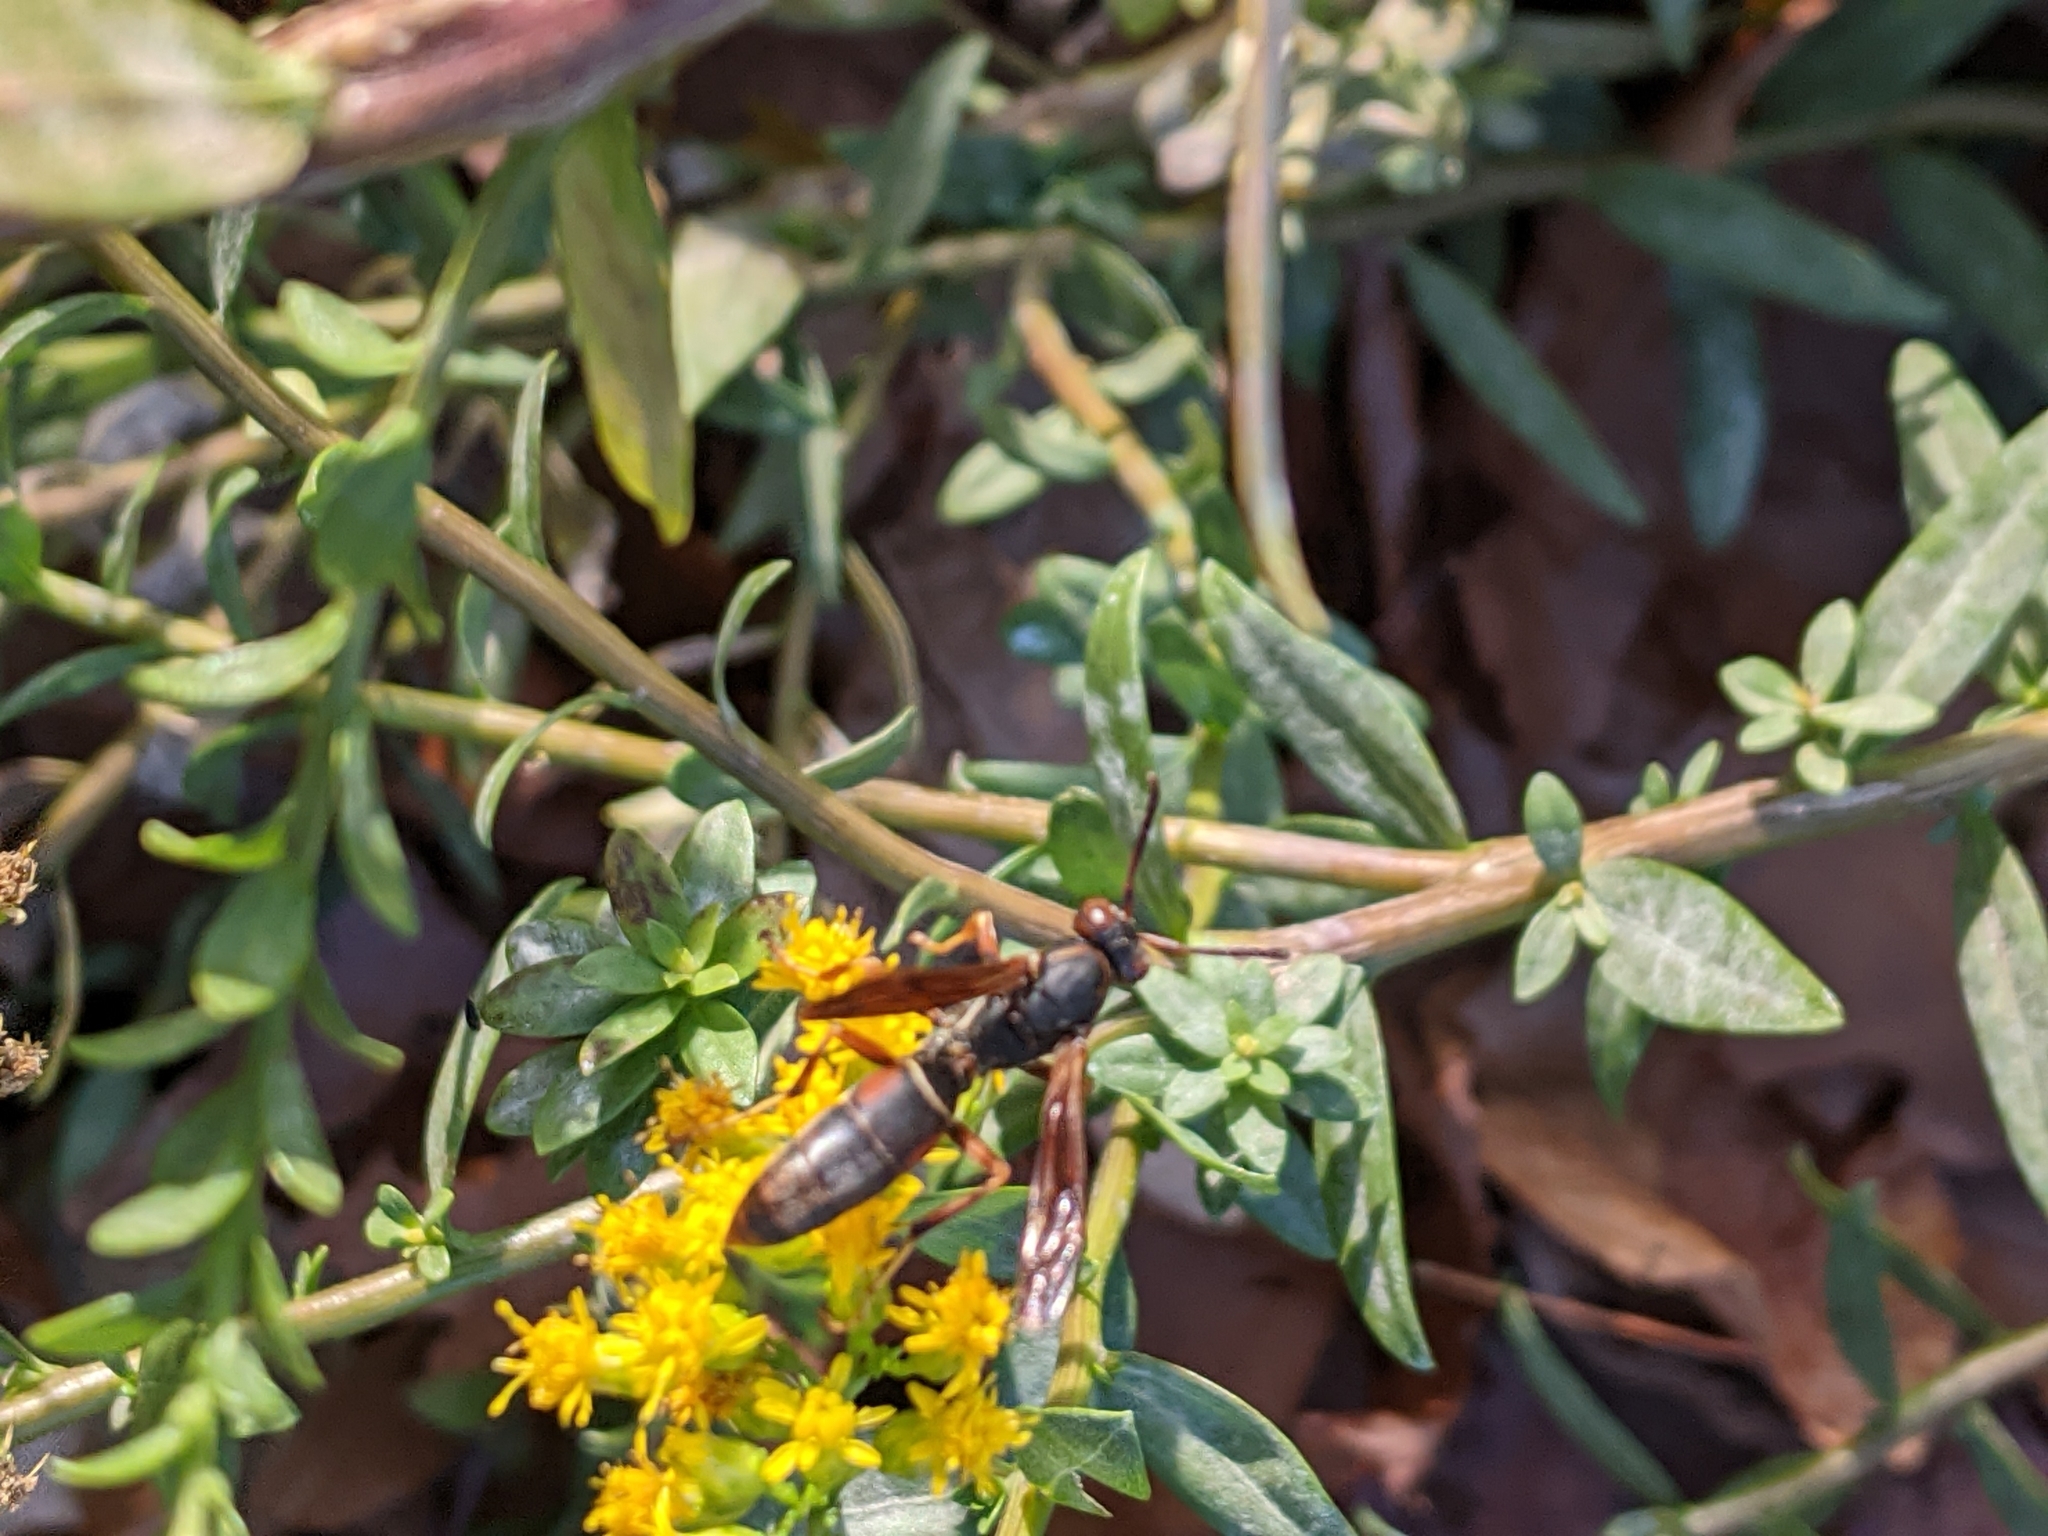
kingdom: Animalia
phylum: Arthropoda
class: Insecta
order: Hymenoptera
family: Eumenidae
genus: Polistes
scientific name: Polistes fuscatus
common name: Dark paper wasp
